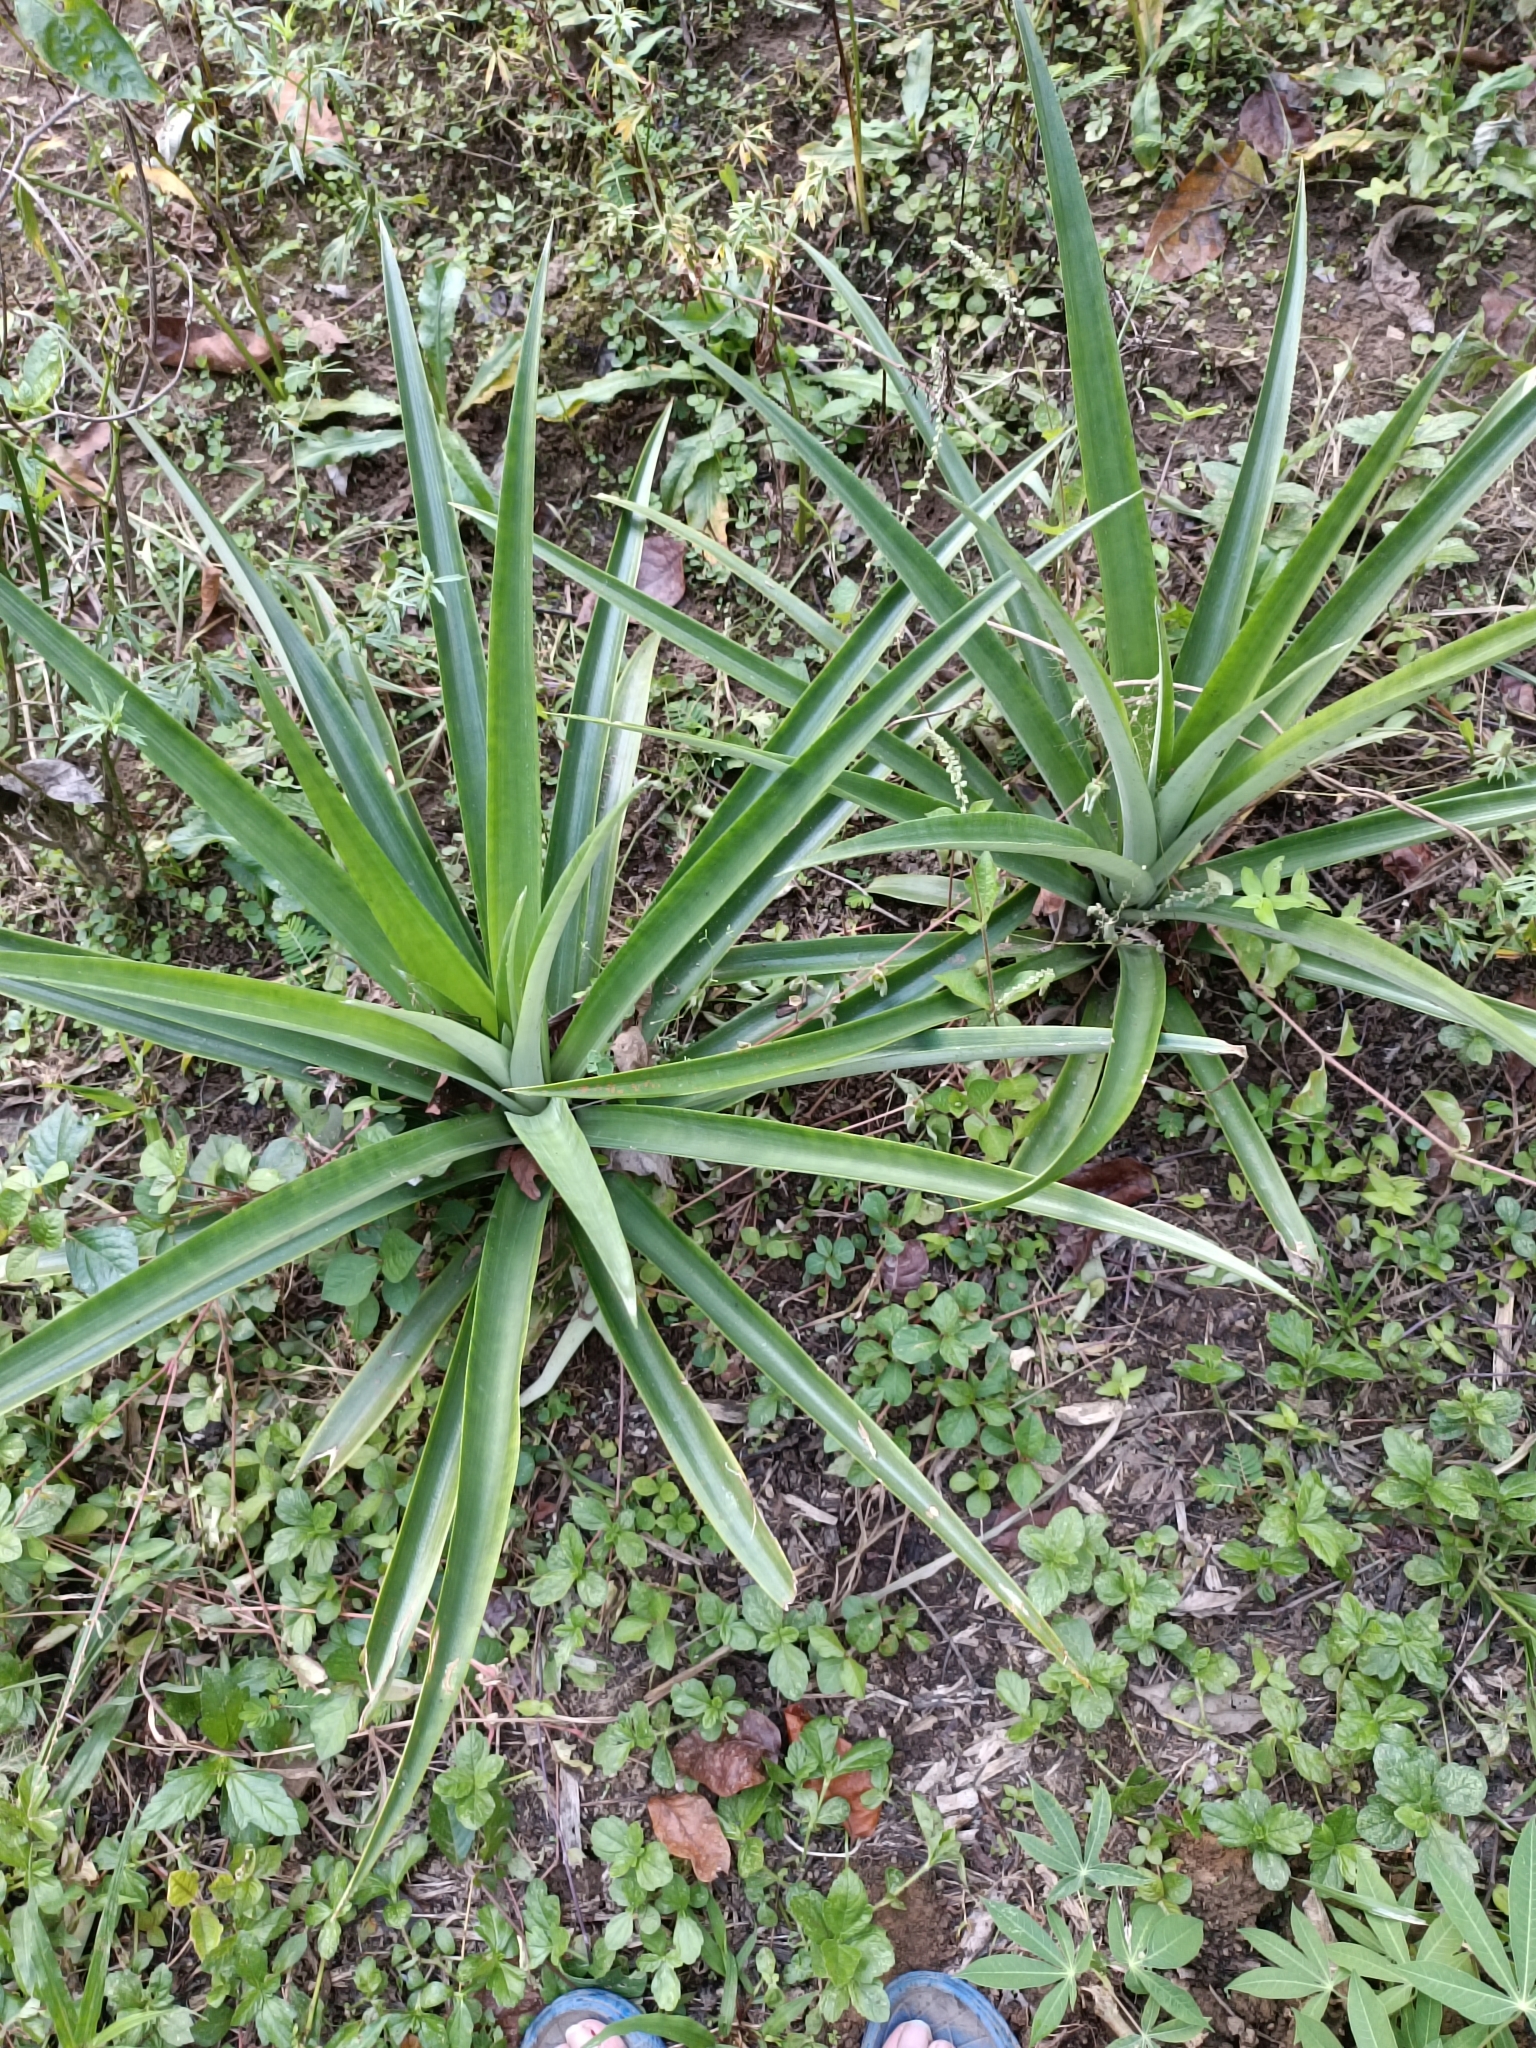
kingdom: Plantae
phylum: Tracheophyta
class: Liliopsida
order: Poales
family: Bromeliaceae
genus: Ananas
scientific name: Ananas comosus
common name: Pineapple
